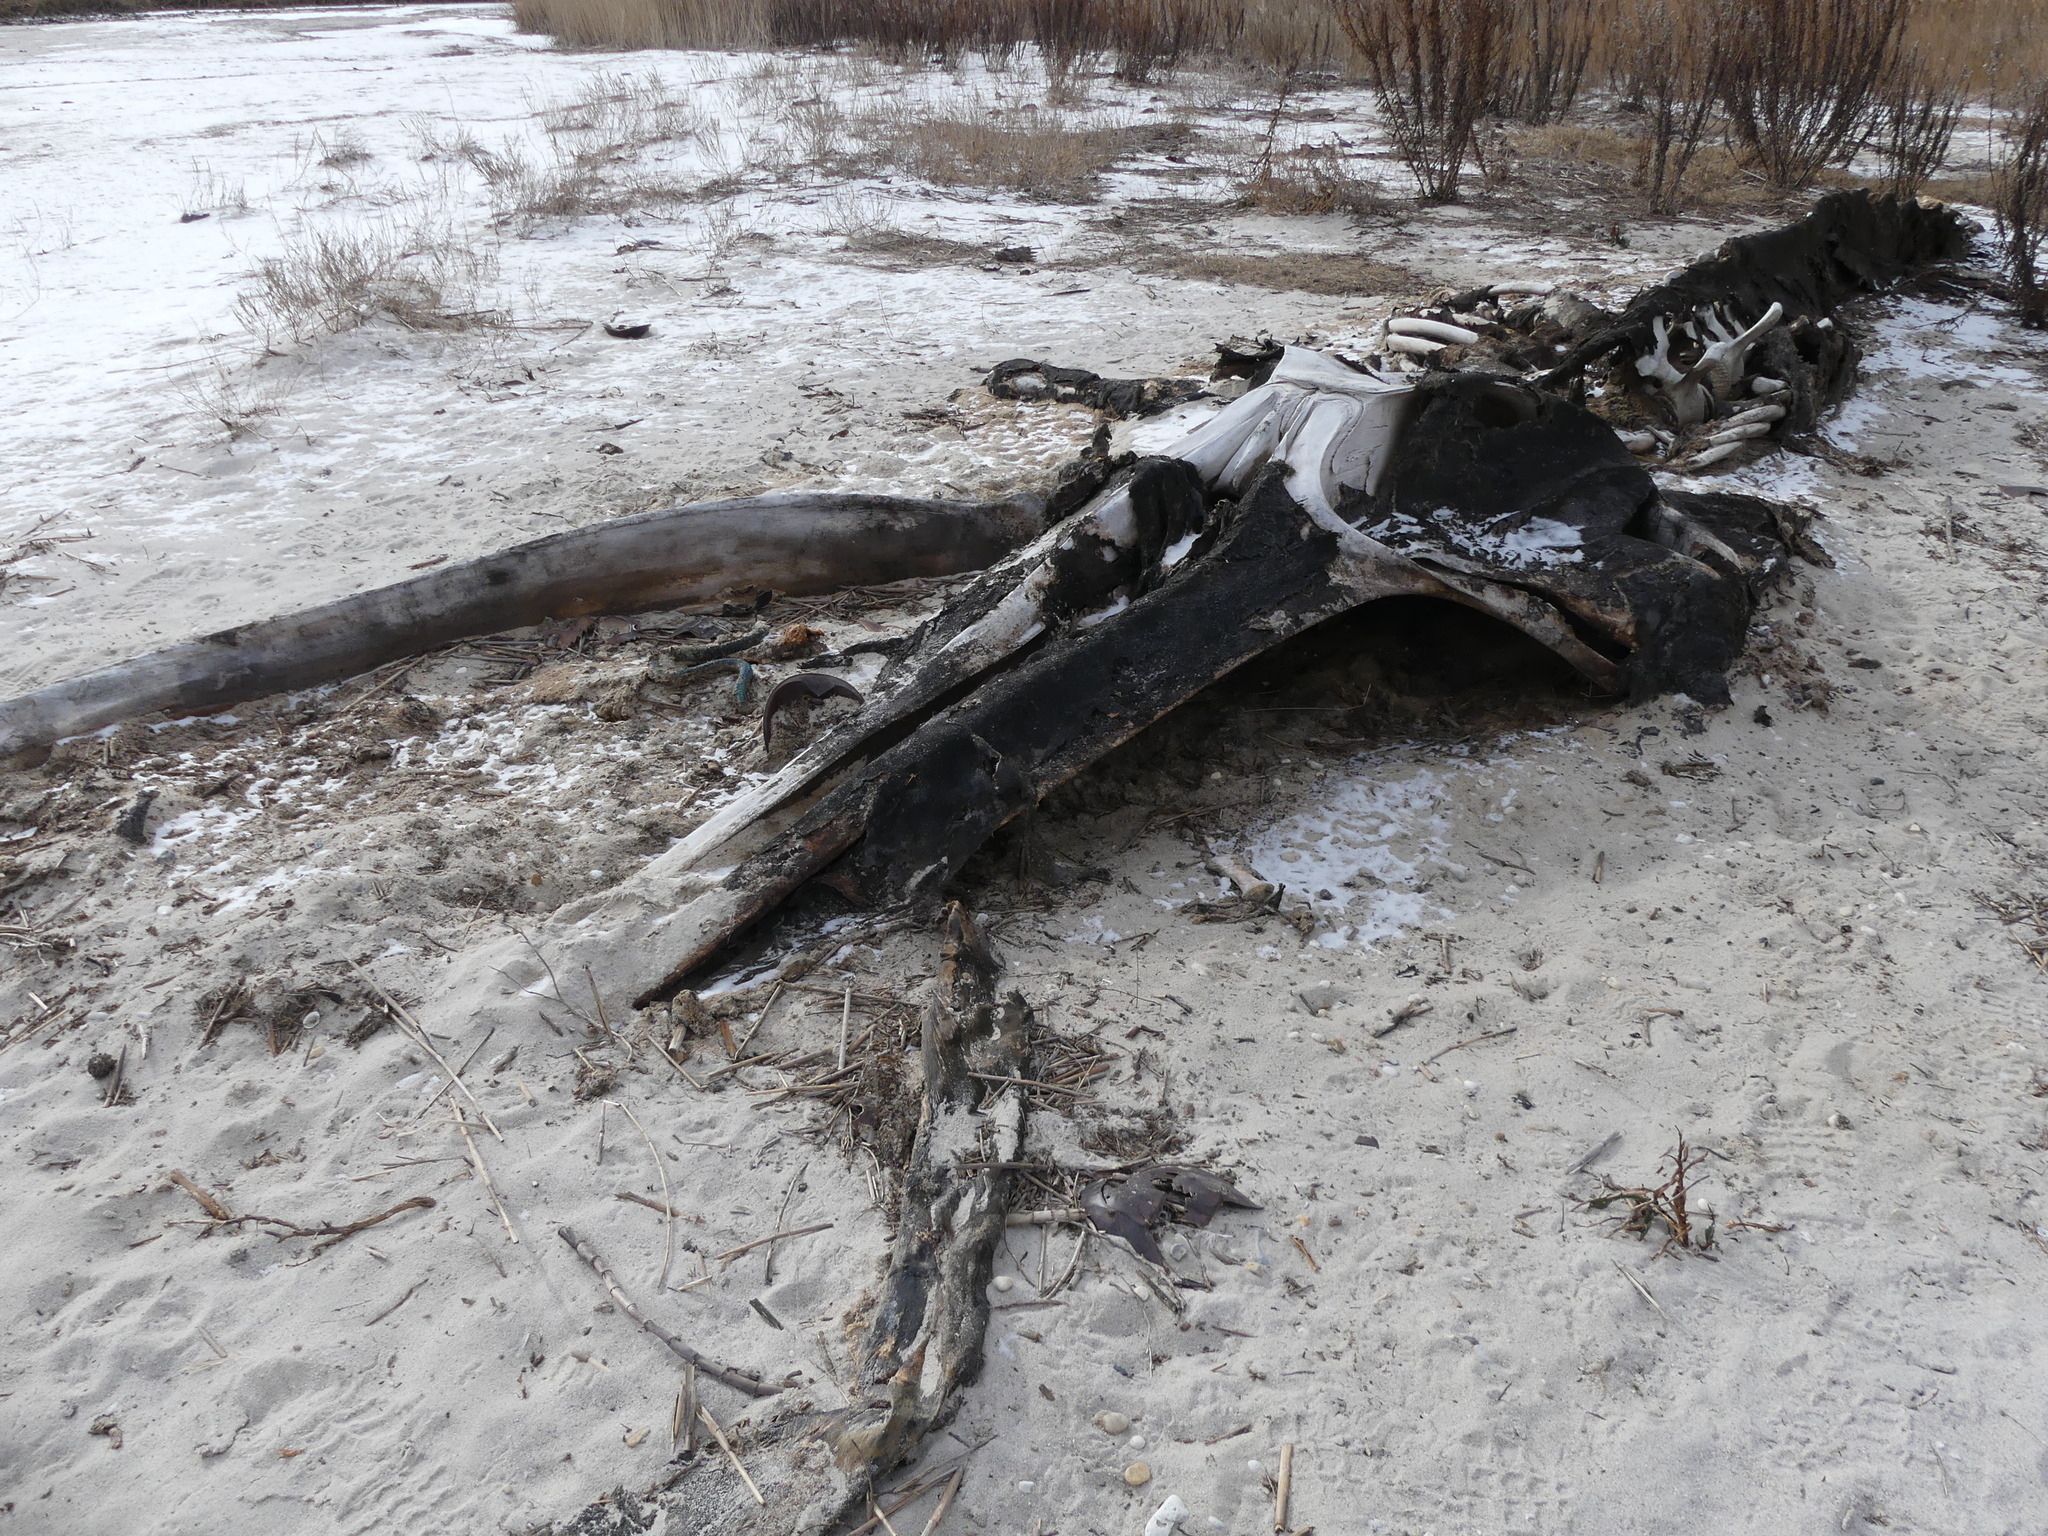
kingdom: Animalia
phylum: Chordata
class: Mammalia
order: Cetacea
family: Balaenopteridae
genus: Megaptera
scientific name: Megaptera novaeangliae
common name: Humpback whale
